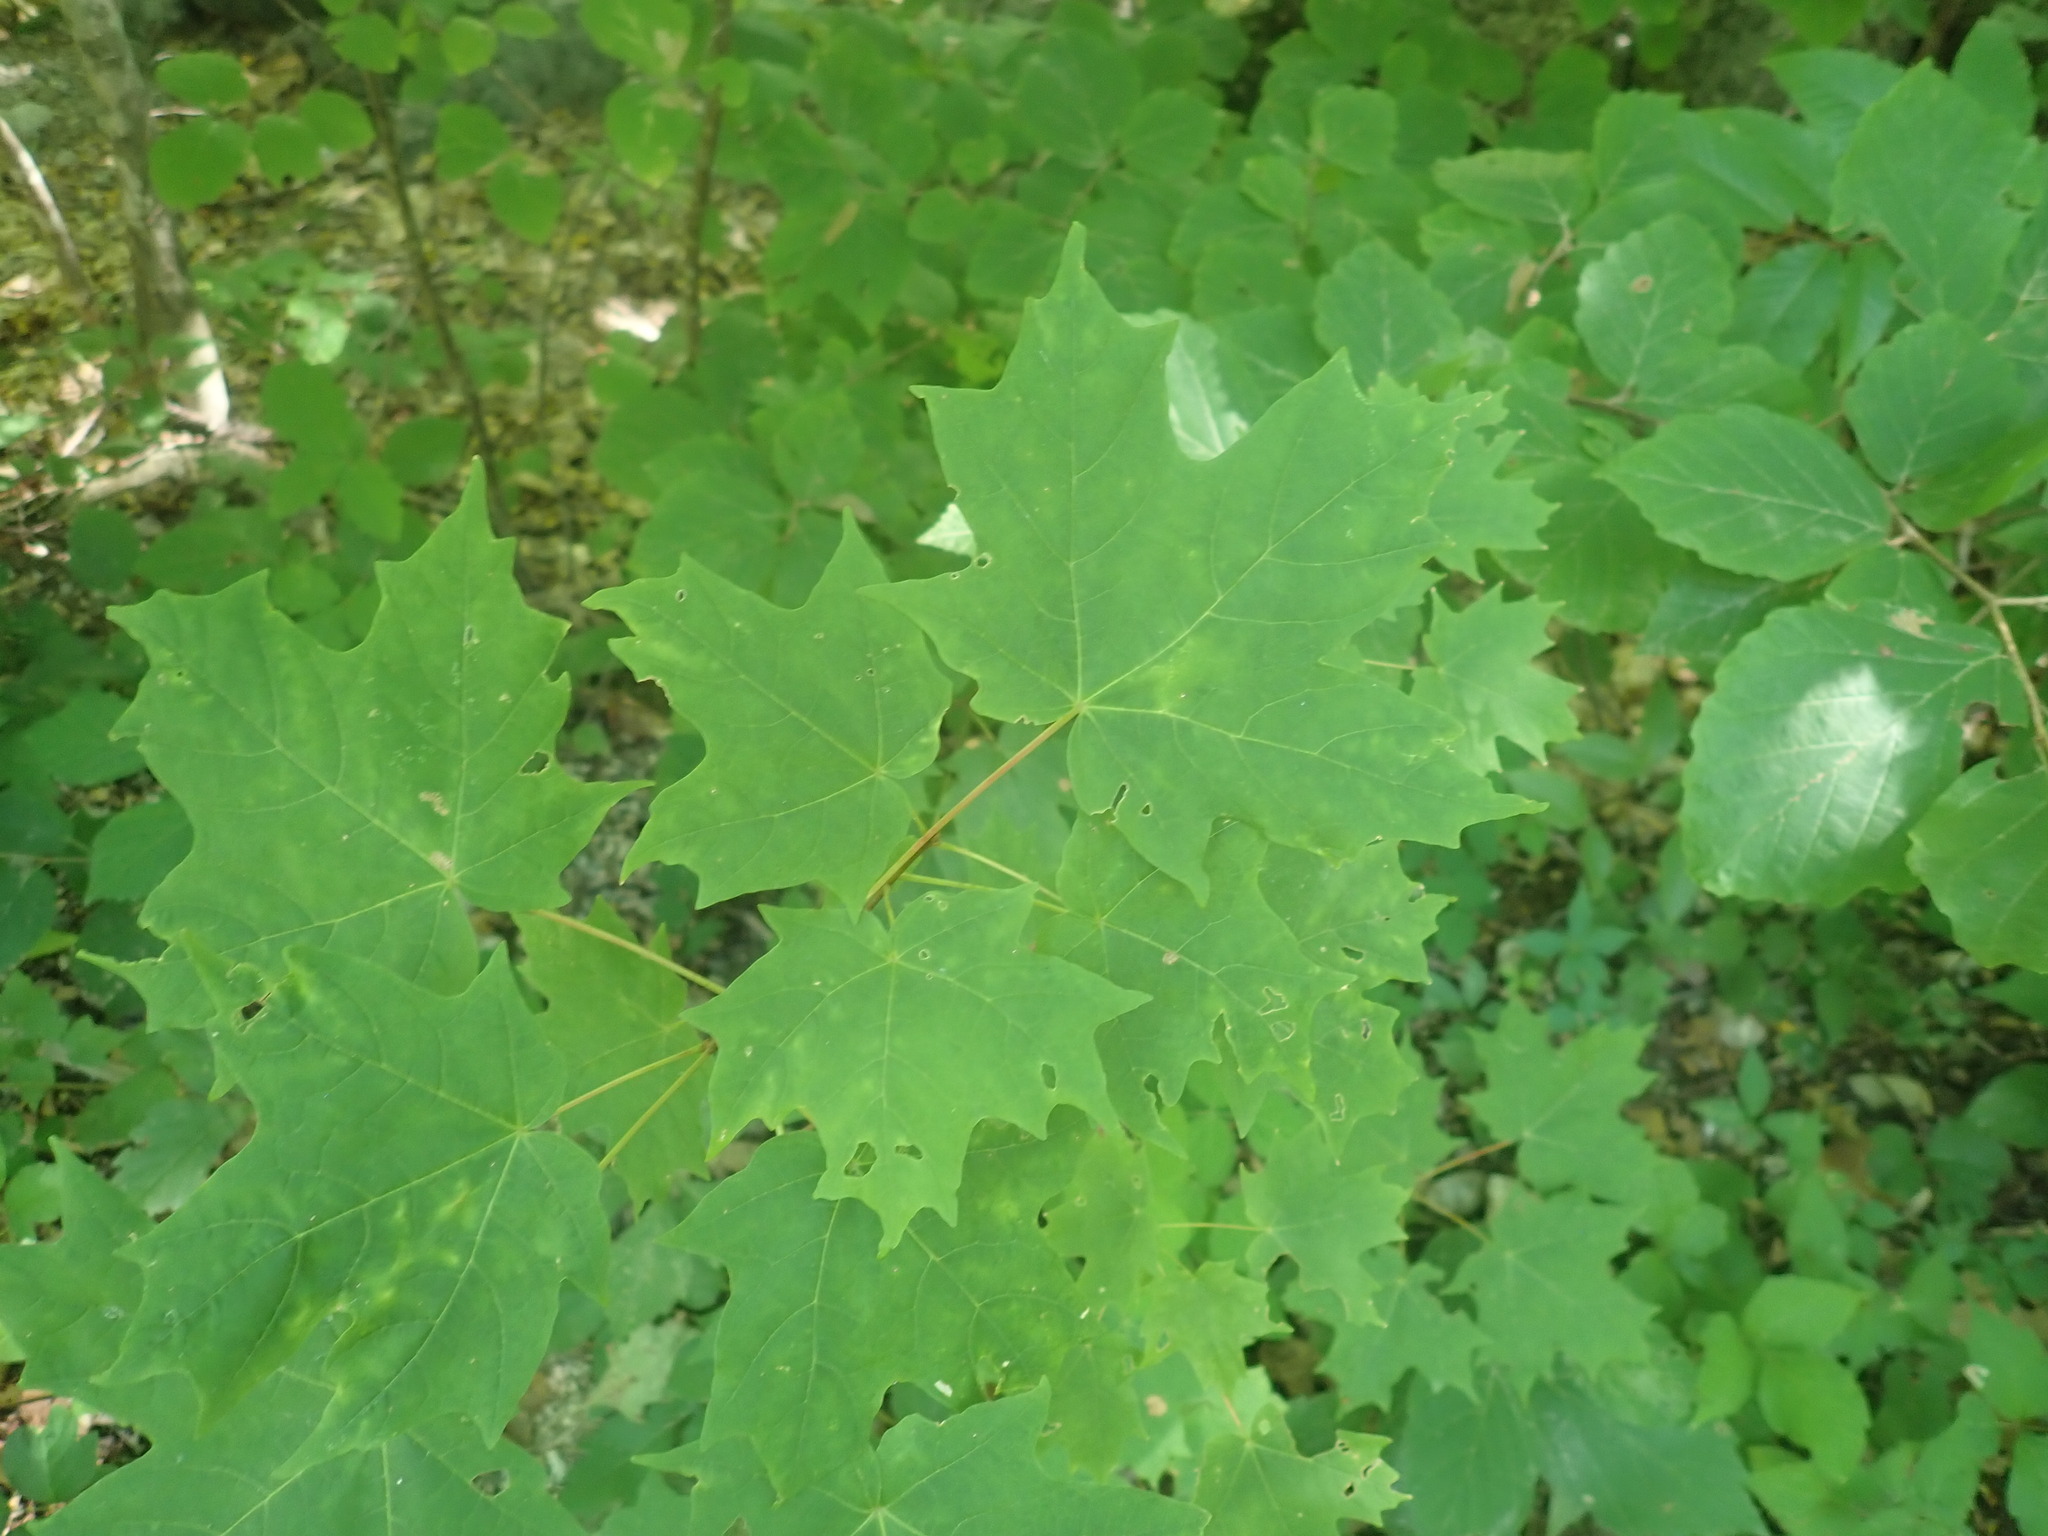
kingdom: Plantae
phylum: Tracheophyta
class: Magnoliopsida
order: Sapindales
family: Sapindaceae
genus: Acer
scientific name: Acer saccharum
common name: Sugar maple
